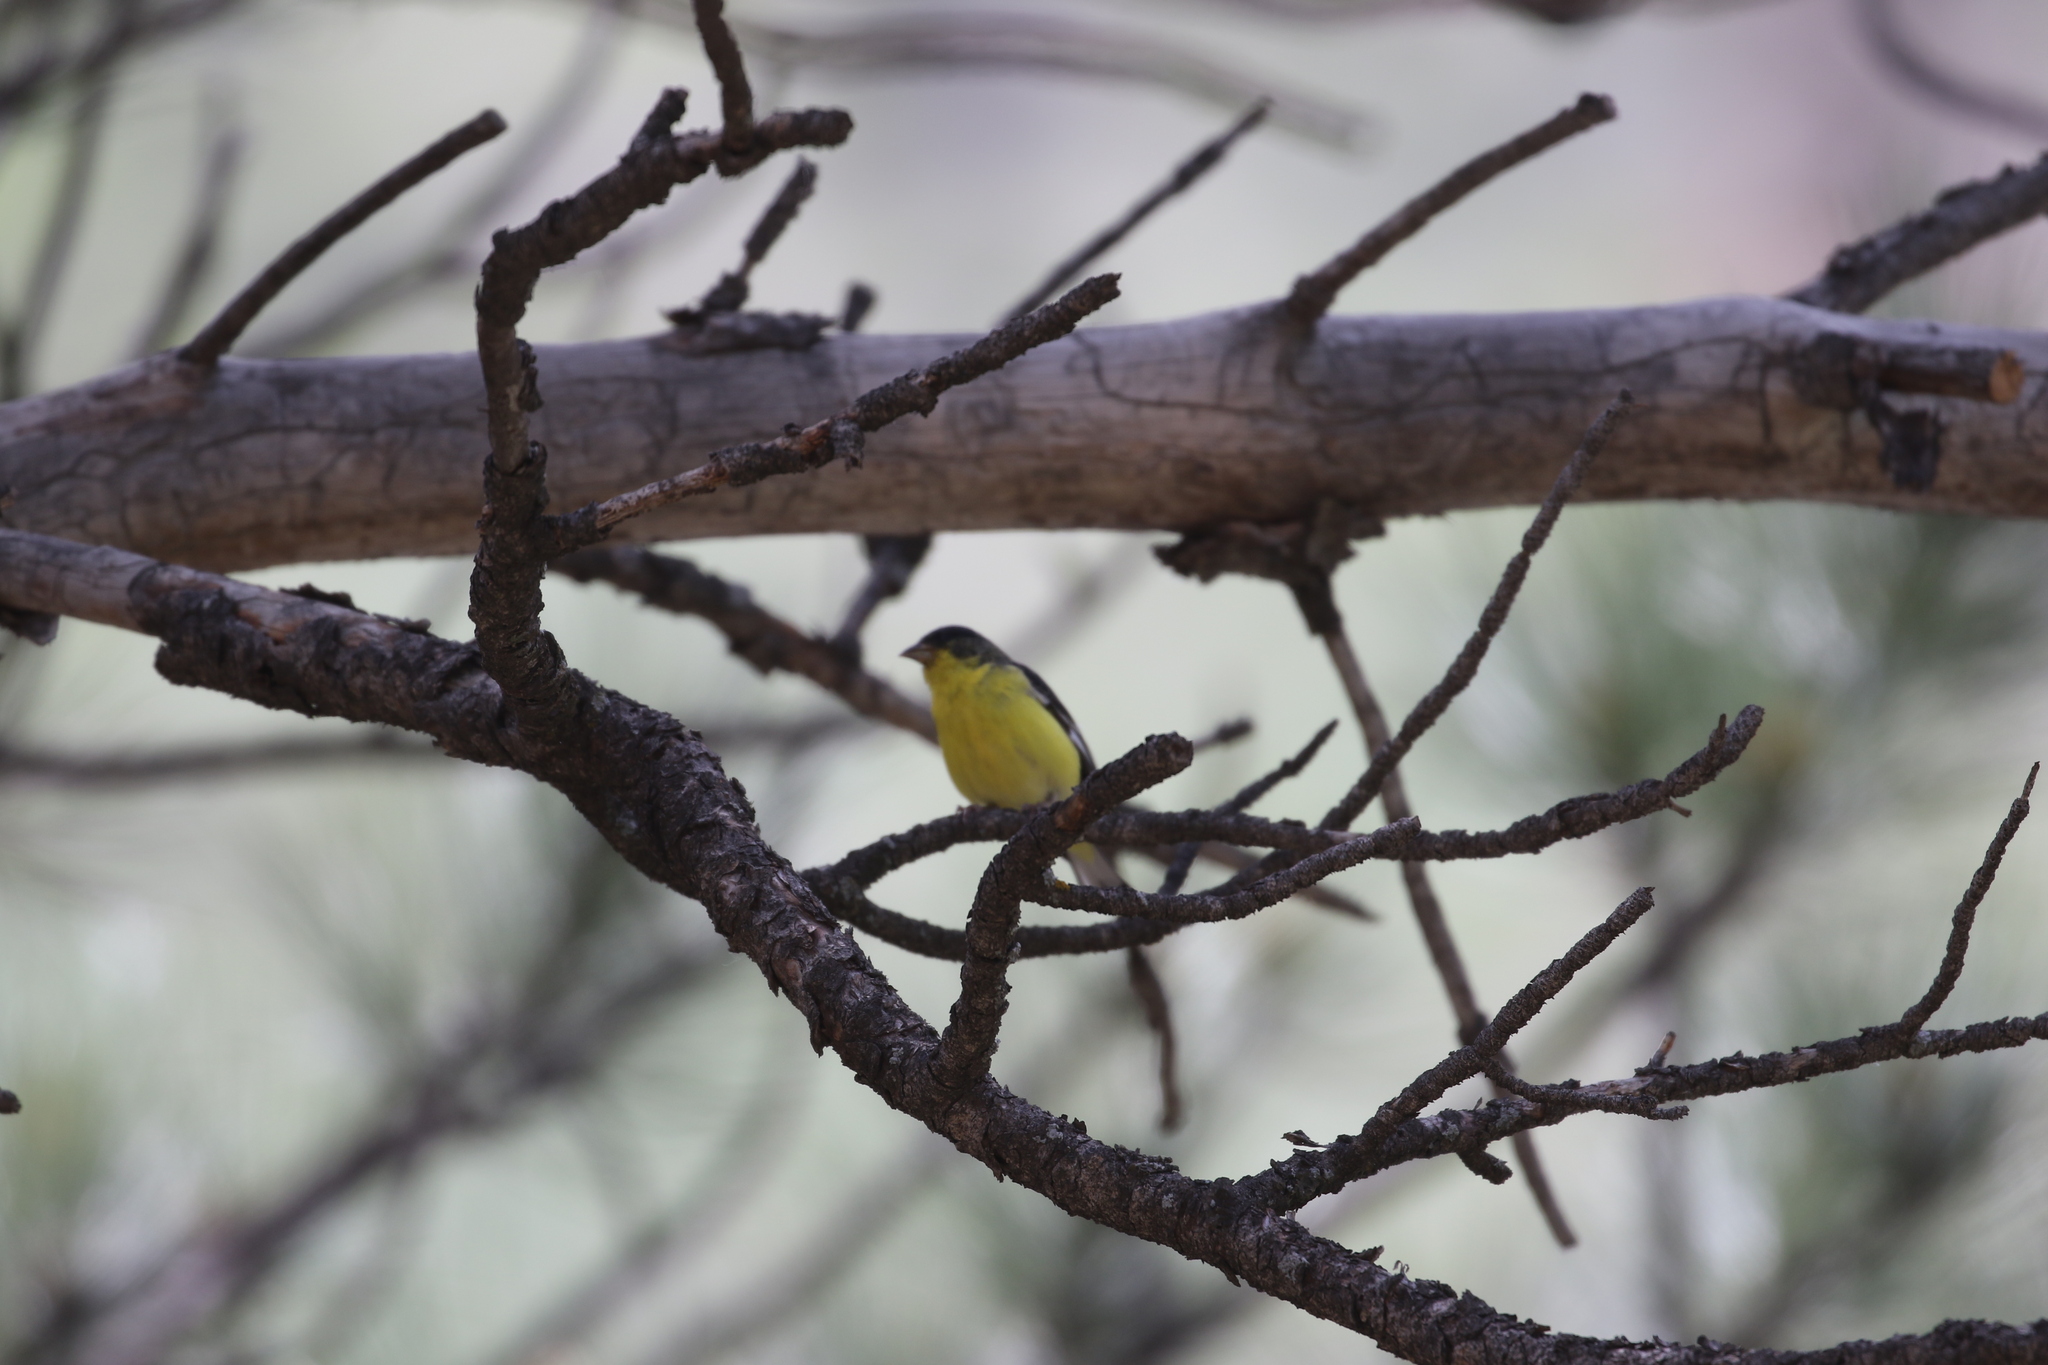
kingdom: Animalia
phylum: Chordata
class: Aves
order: Passeriformes
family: Fringillidae
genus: Spinus
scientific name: Spinus psaltria
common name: Lesser goldfinch
